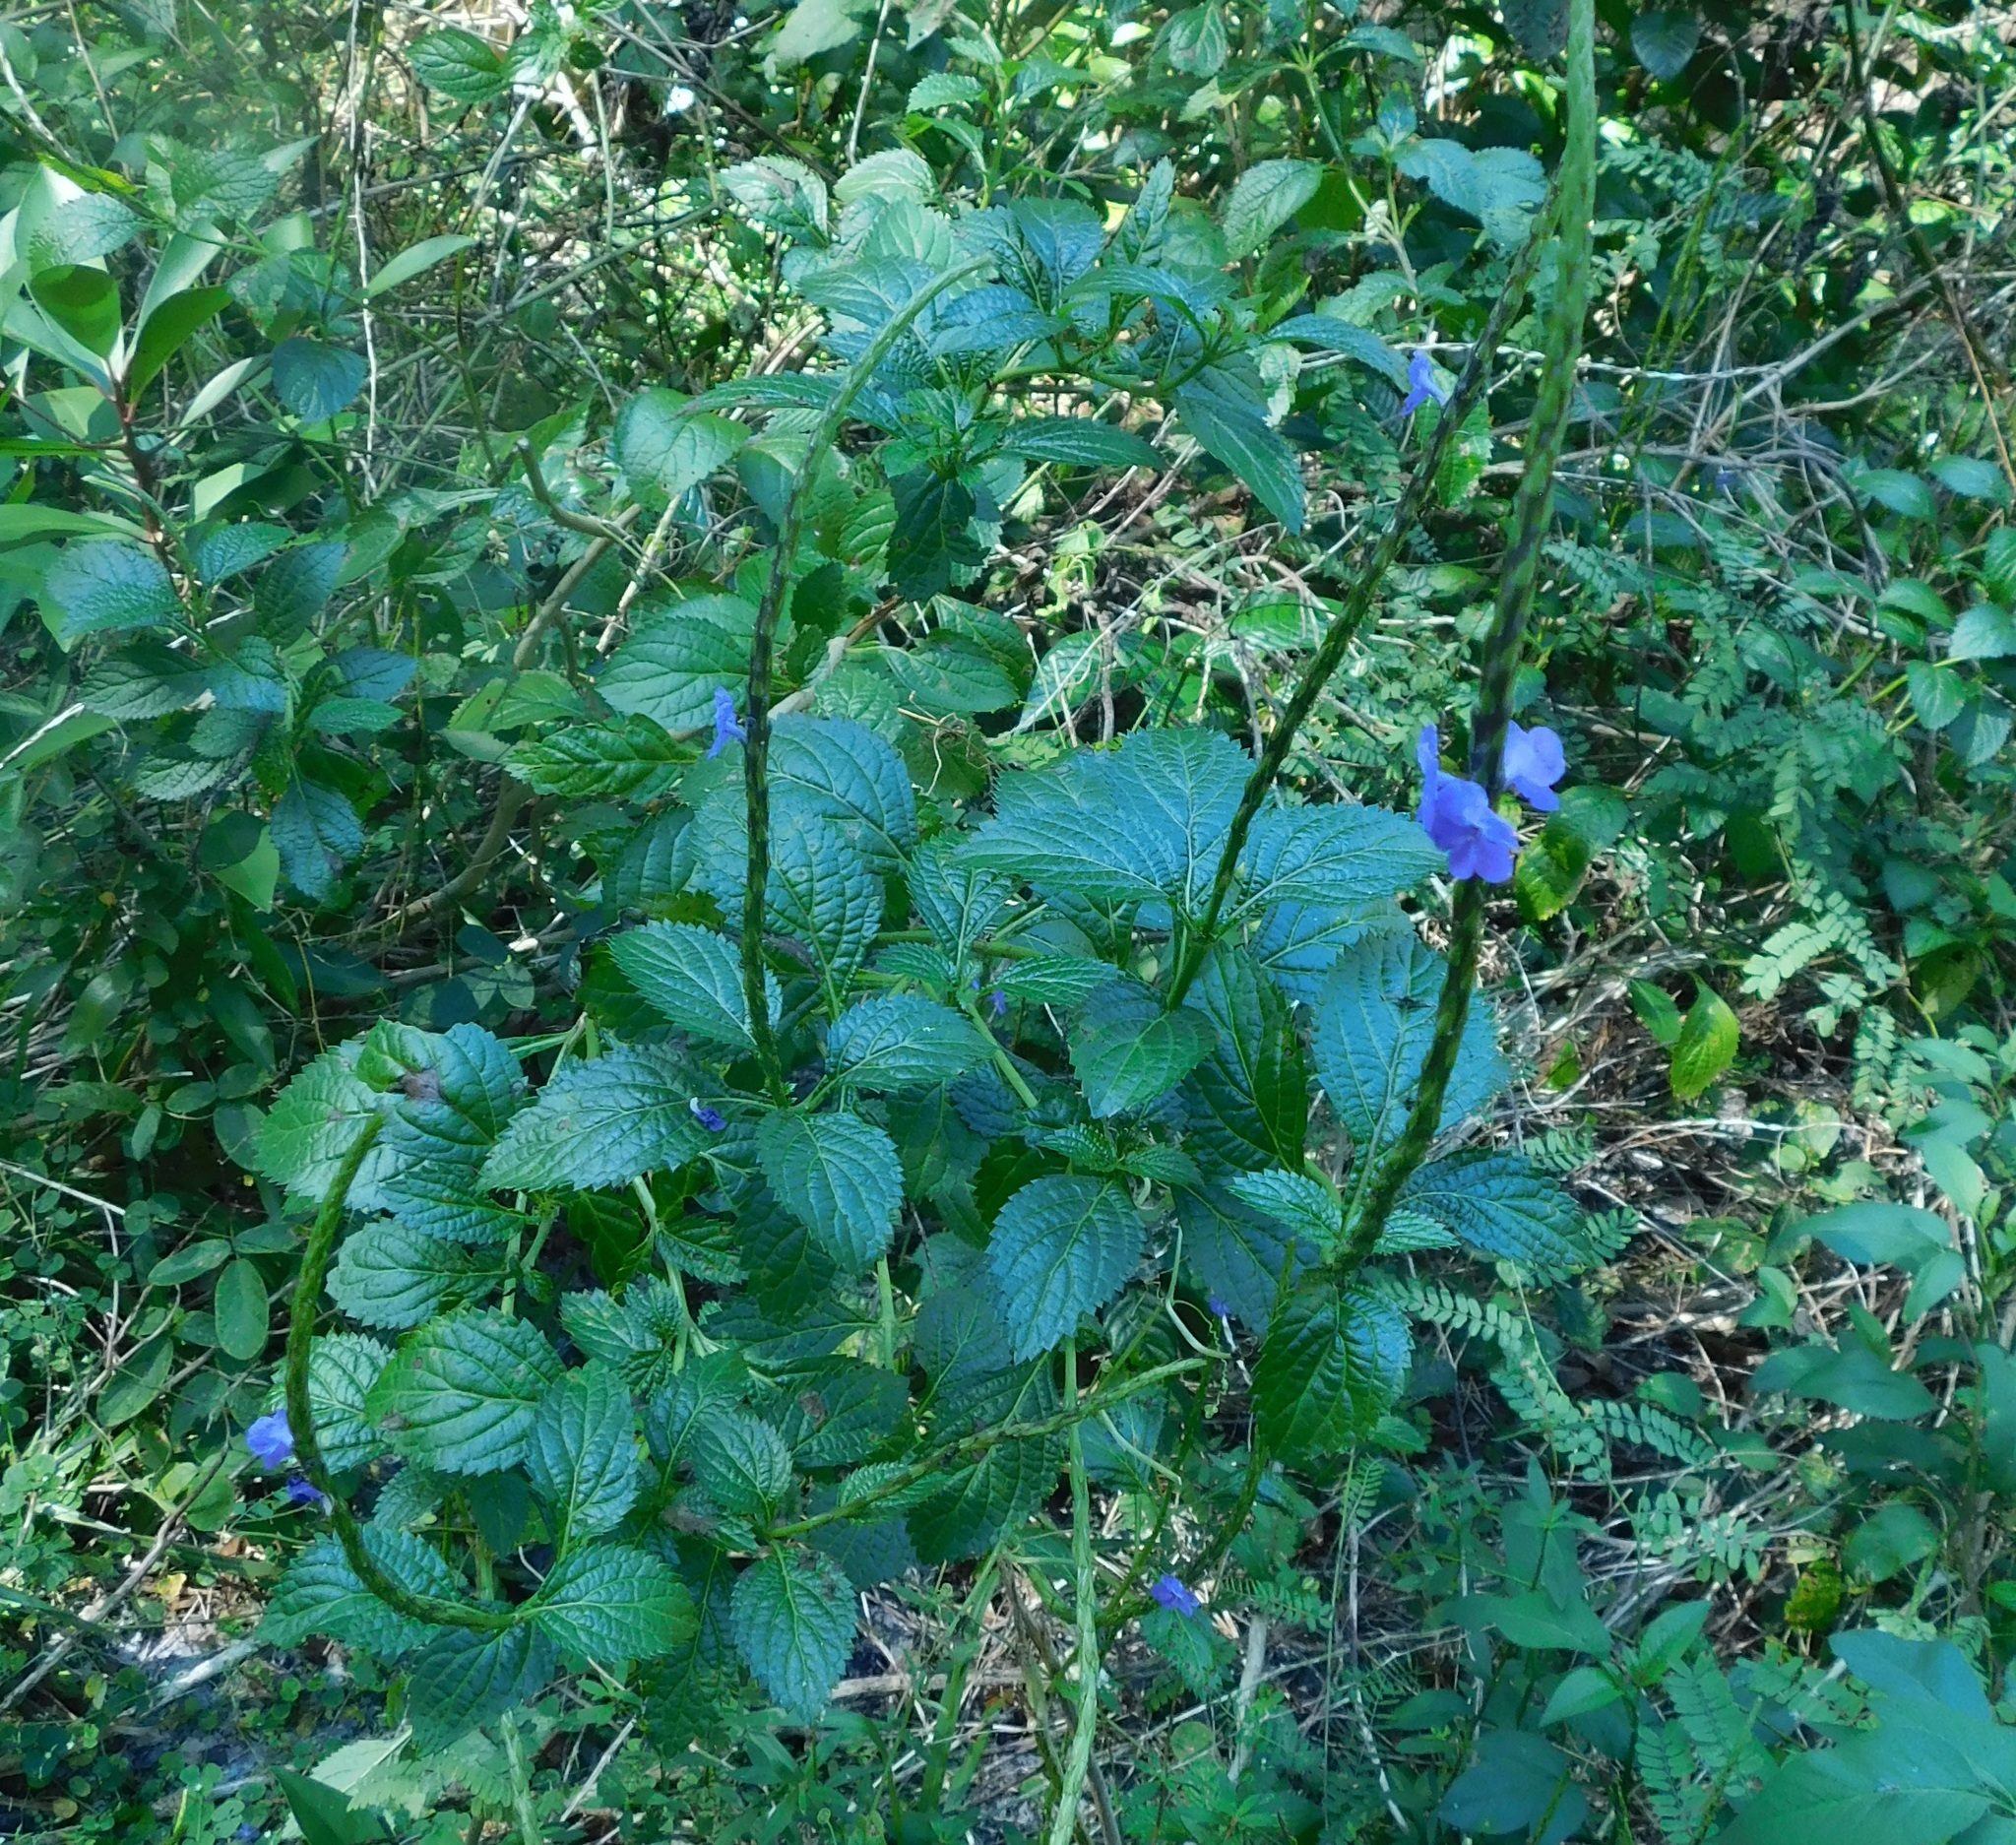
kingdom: Plantae
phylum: Tracheophyta
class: Magnoliopsida
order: Lamiales
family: Verbenaceae
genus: Stachytarpheta
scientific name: Stachytarpheta cayennensis
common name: Cayenne porterweed
